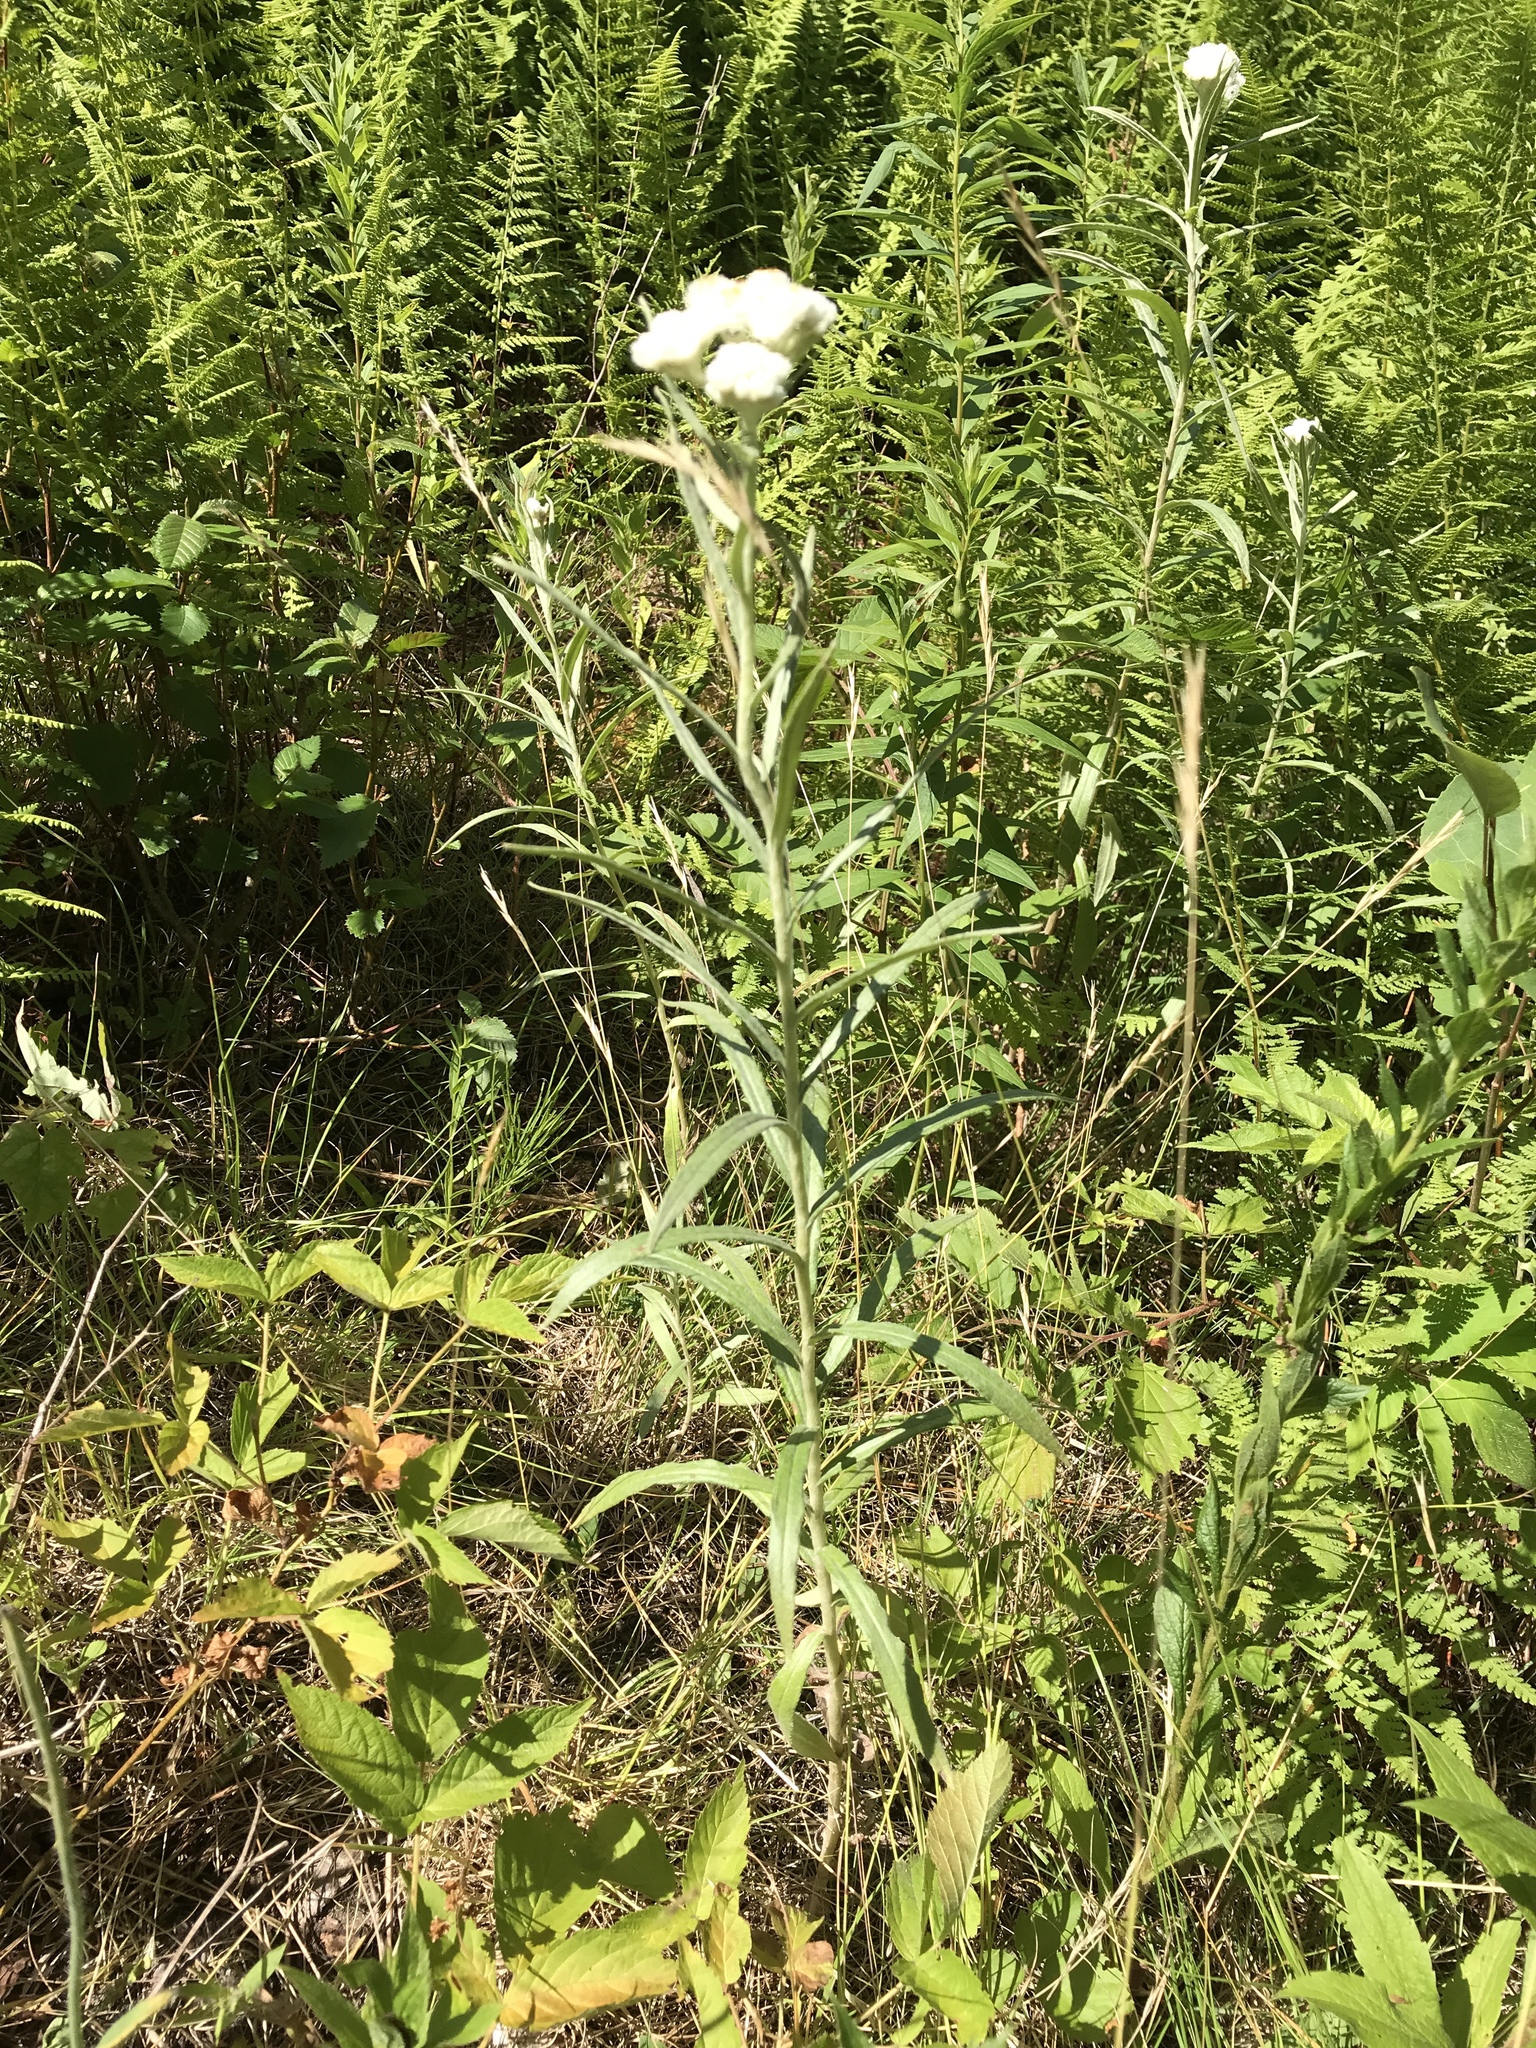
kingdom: Plantae
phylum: Tracheophyta
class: Magnoliopsida
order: Asterales
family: Asteraceae
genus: Anaphalis
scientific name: Anaphalis margaritacea
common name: Pearly everlasting
